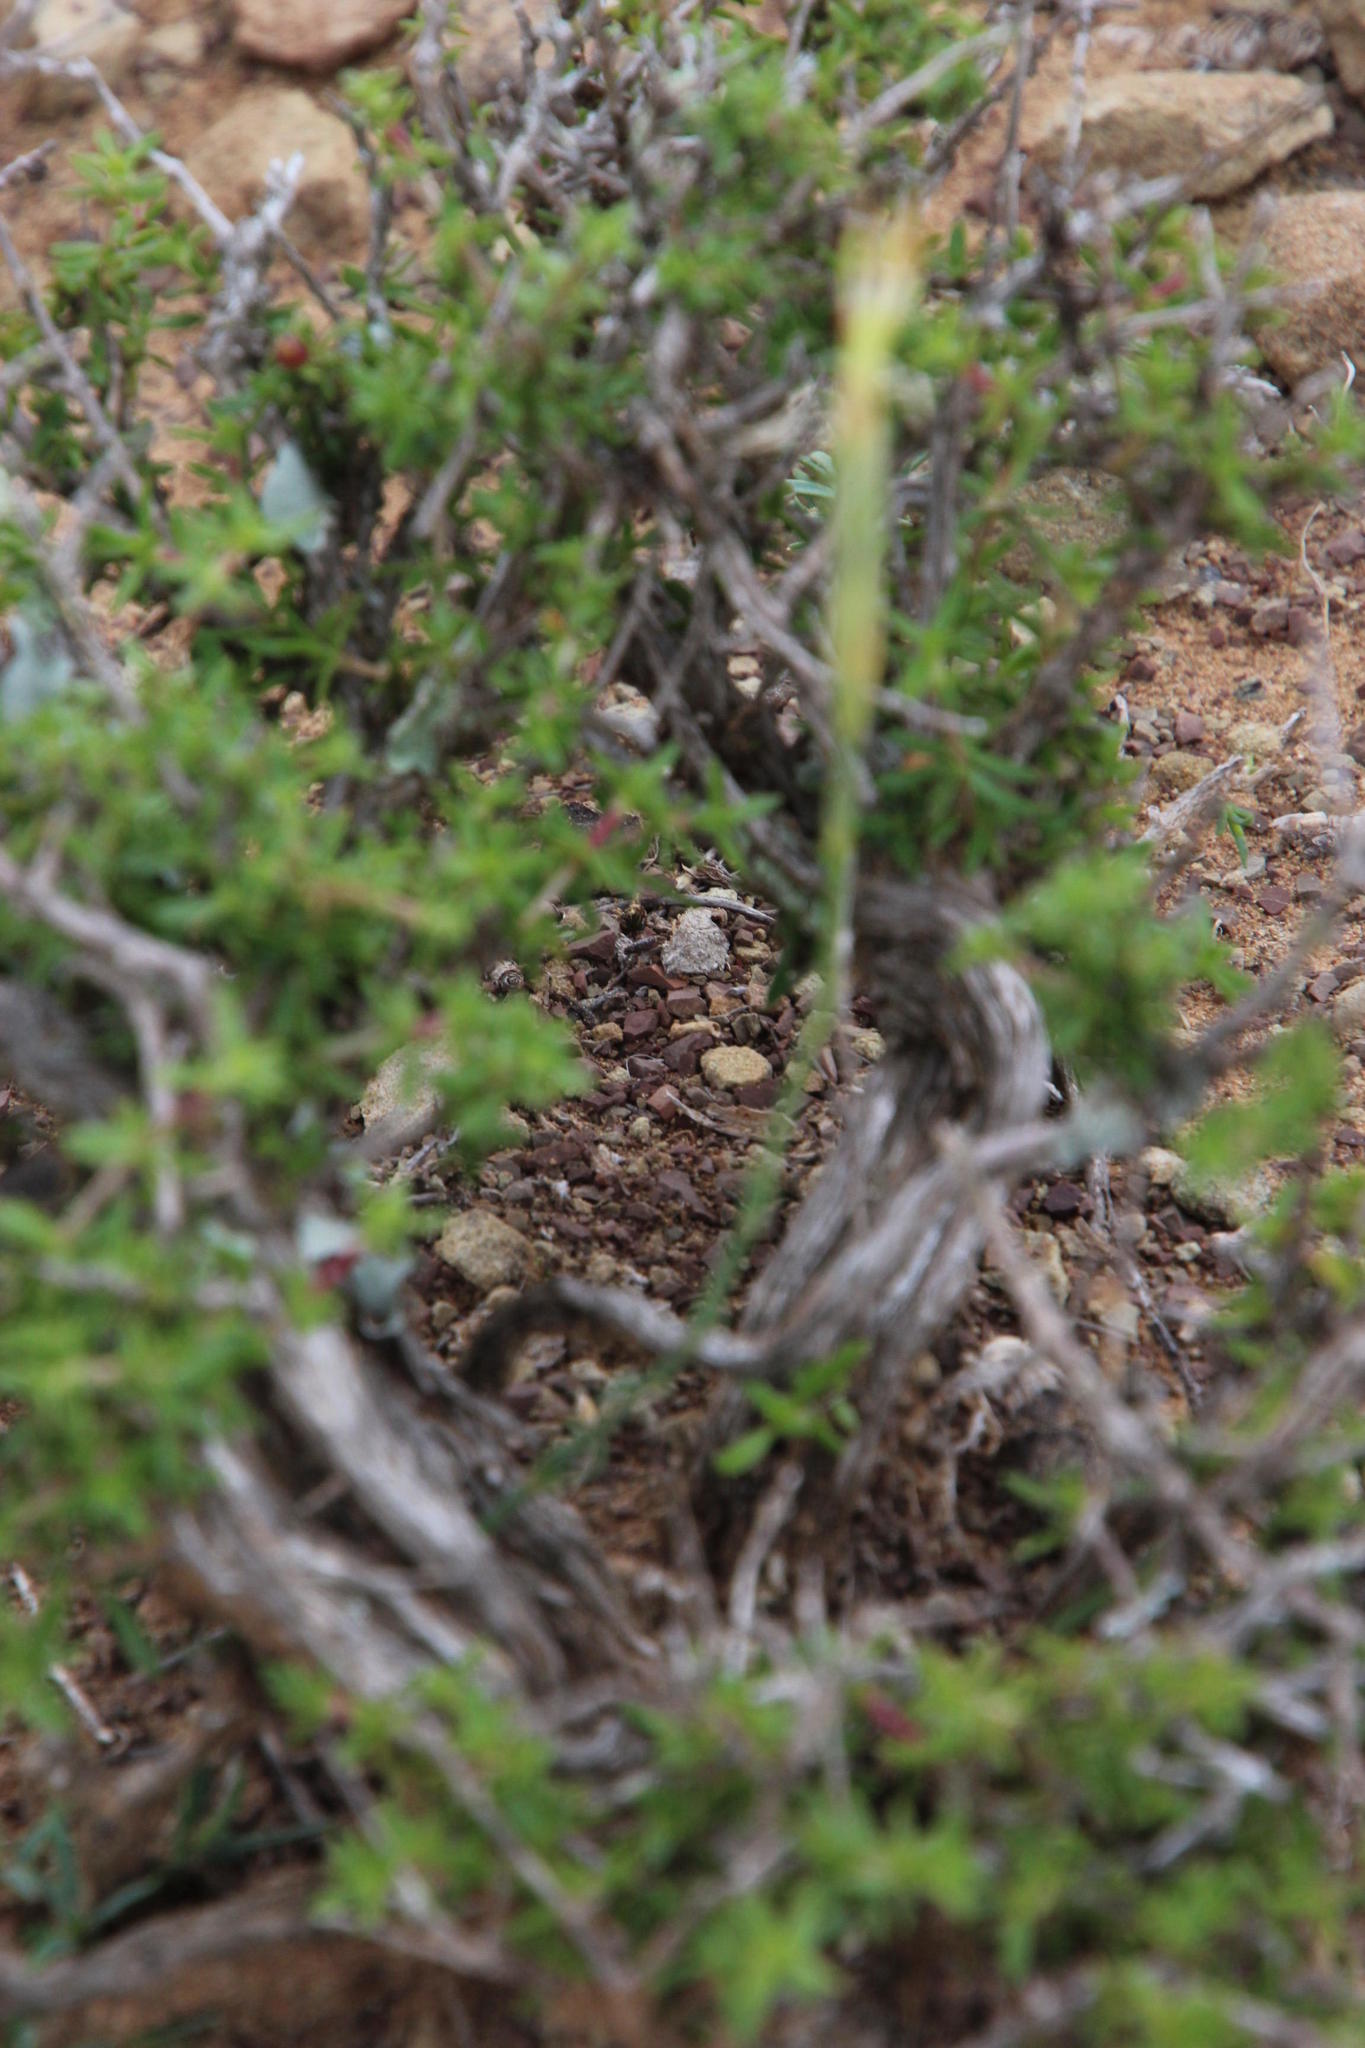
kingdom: Plantae
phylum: Tracheophyta
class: Magnoliopsida
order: Caryophyllales
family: Caryophyllaceae
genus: Dianthus
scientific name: Dianthus micropetalus
